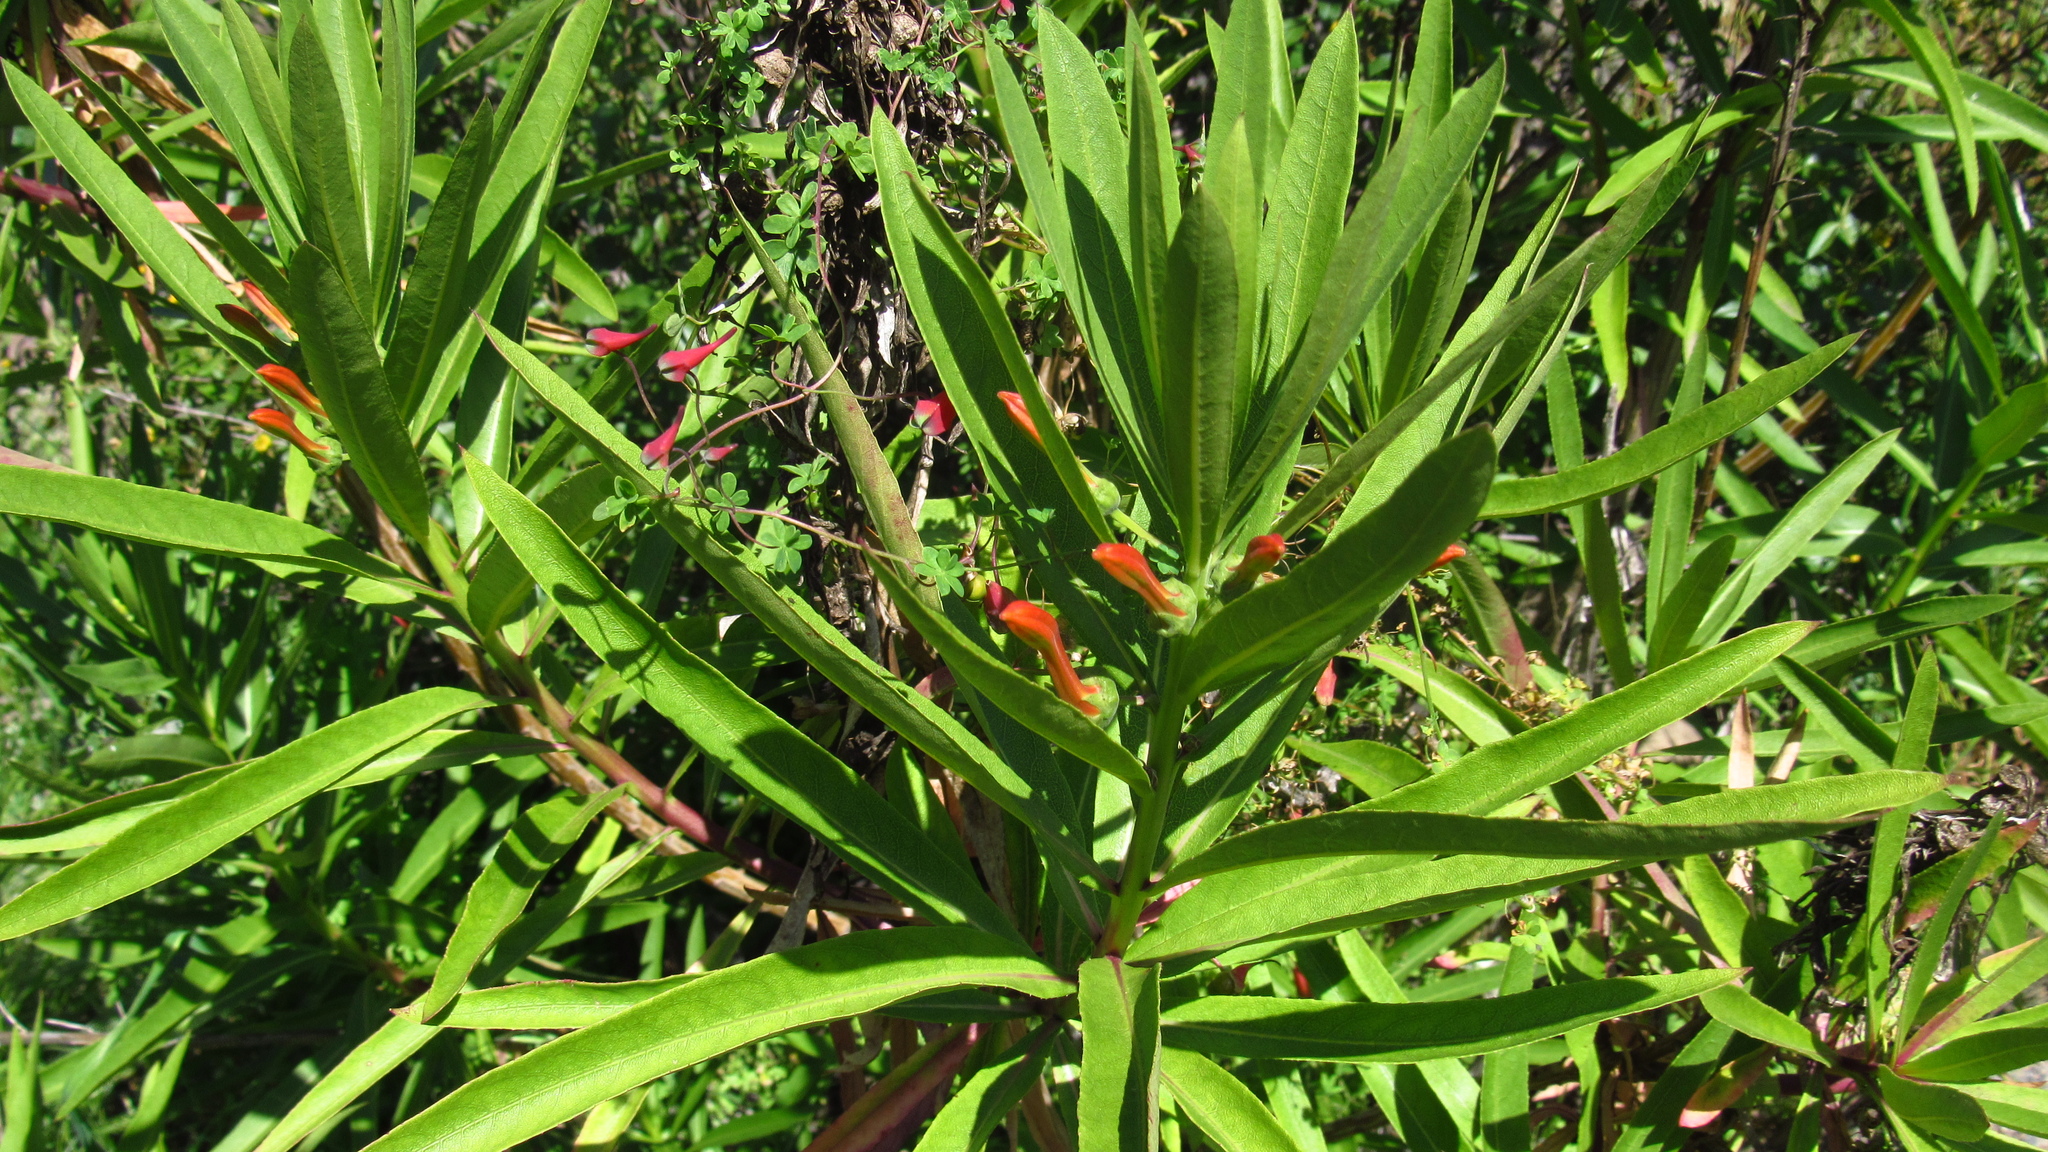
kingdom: Plantae
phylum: Tracheophyta
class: Magnoliopsida
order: Asterales
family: Campanulaceae
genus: Lobelia
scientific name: Lobelia excelsa
